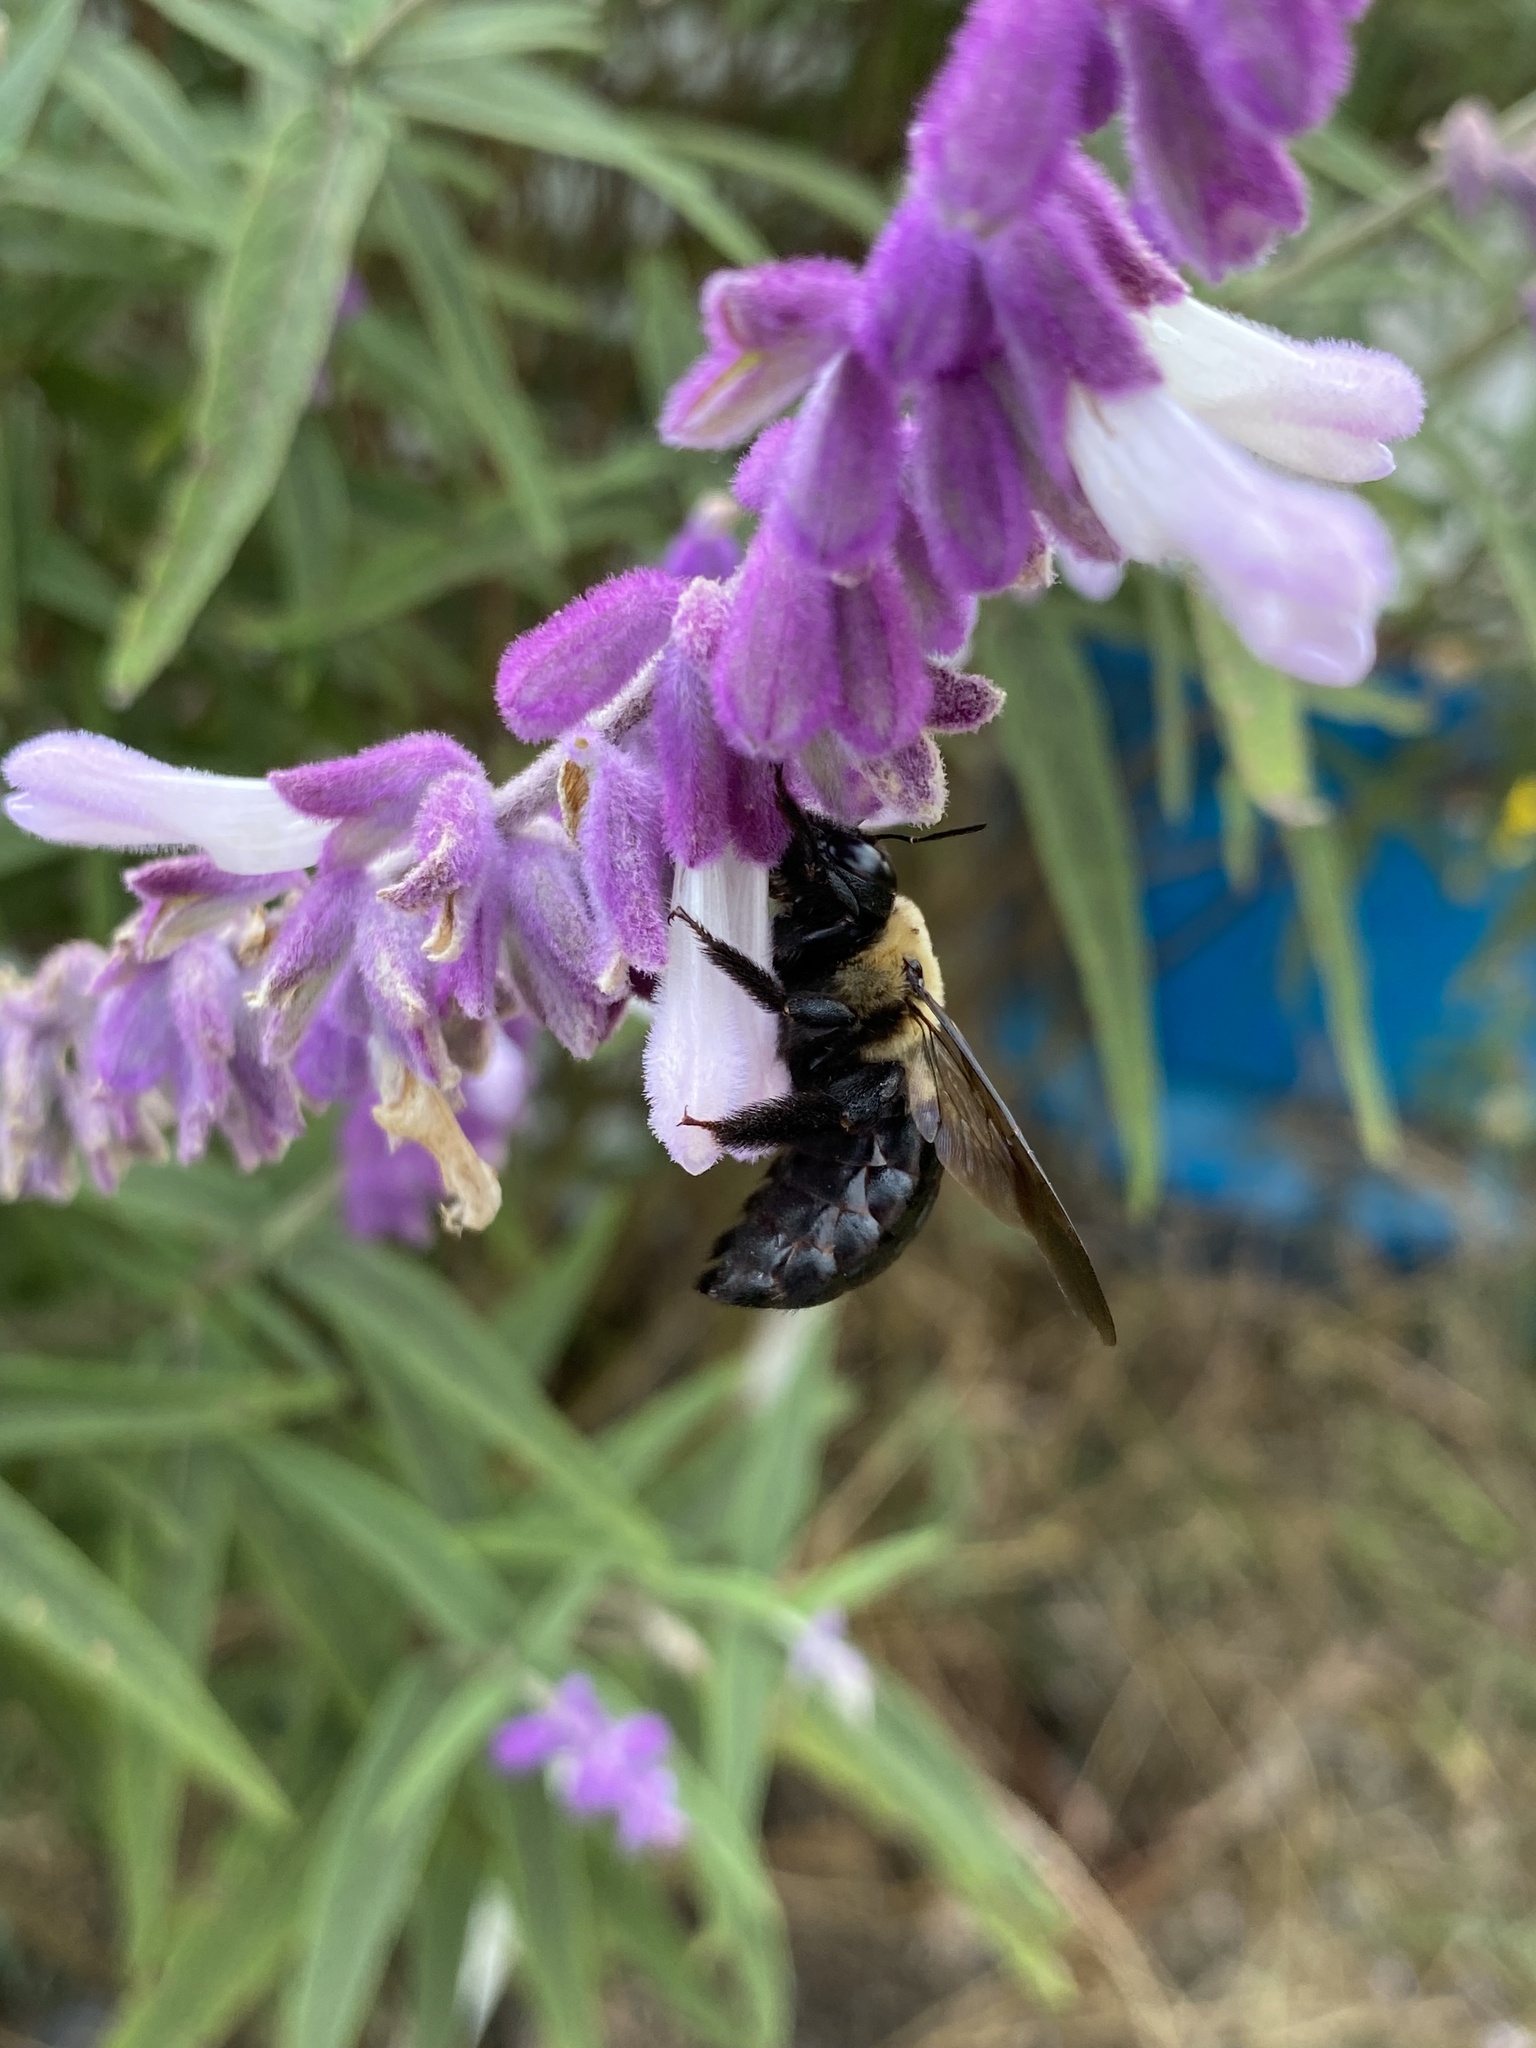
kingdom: Animalia
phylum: Arthropoda
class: Insecta
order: Hymenoptera
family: Apidae
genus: Xylocopa
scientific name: Xylocopa virginica
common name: Carpenter bee
